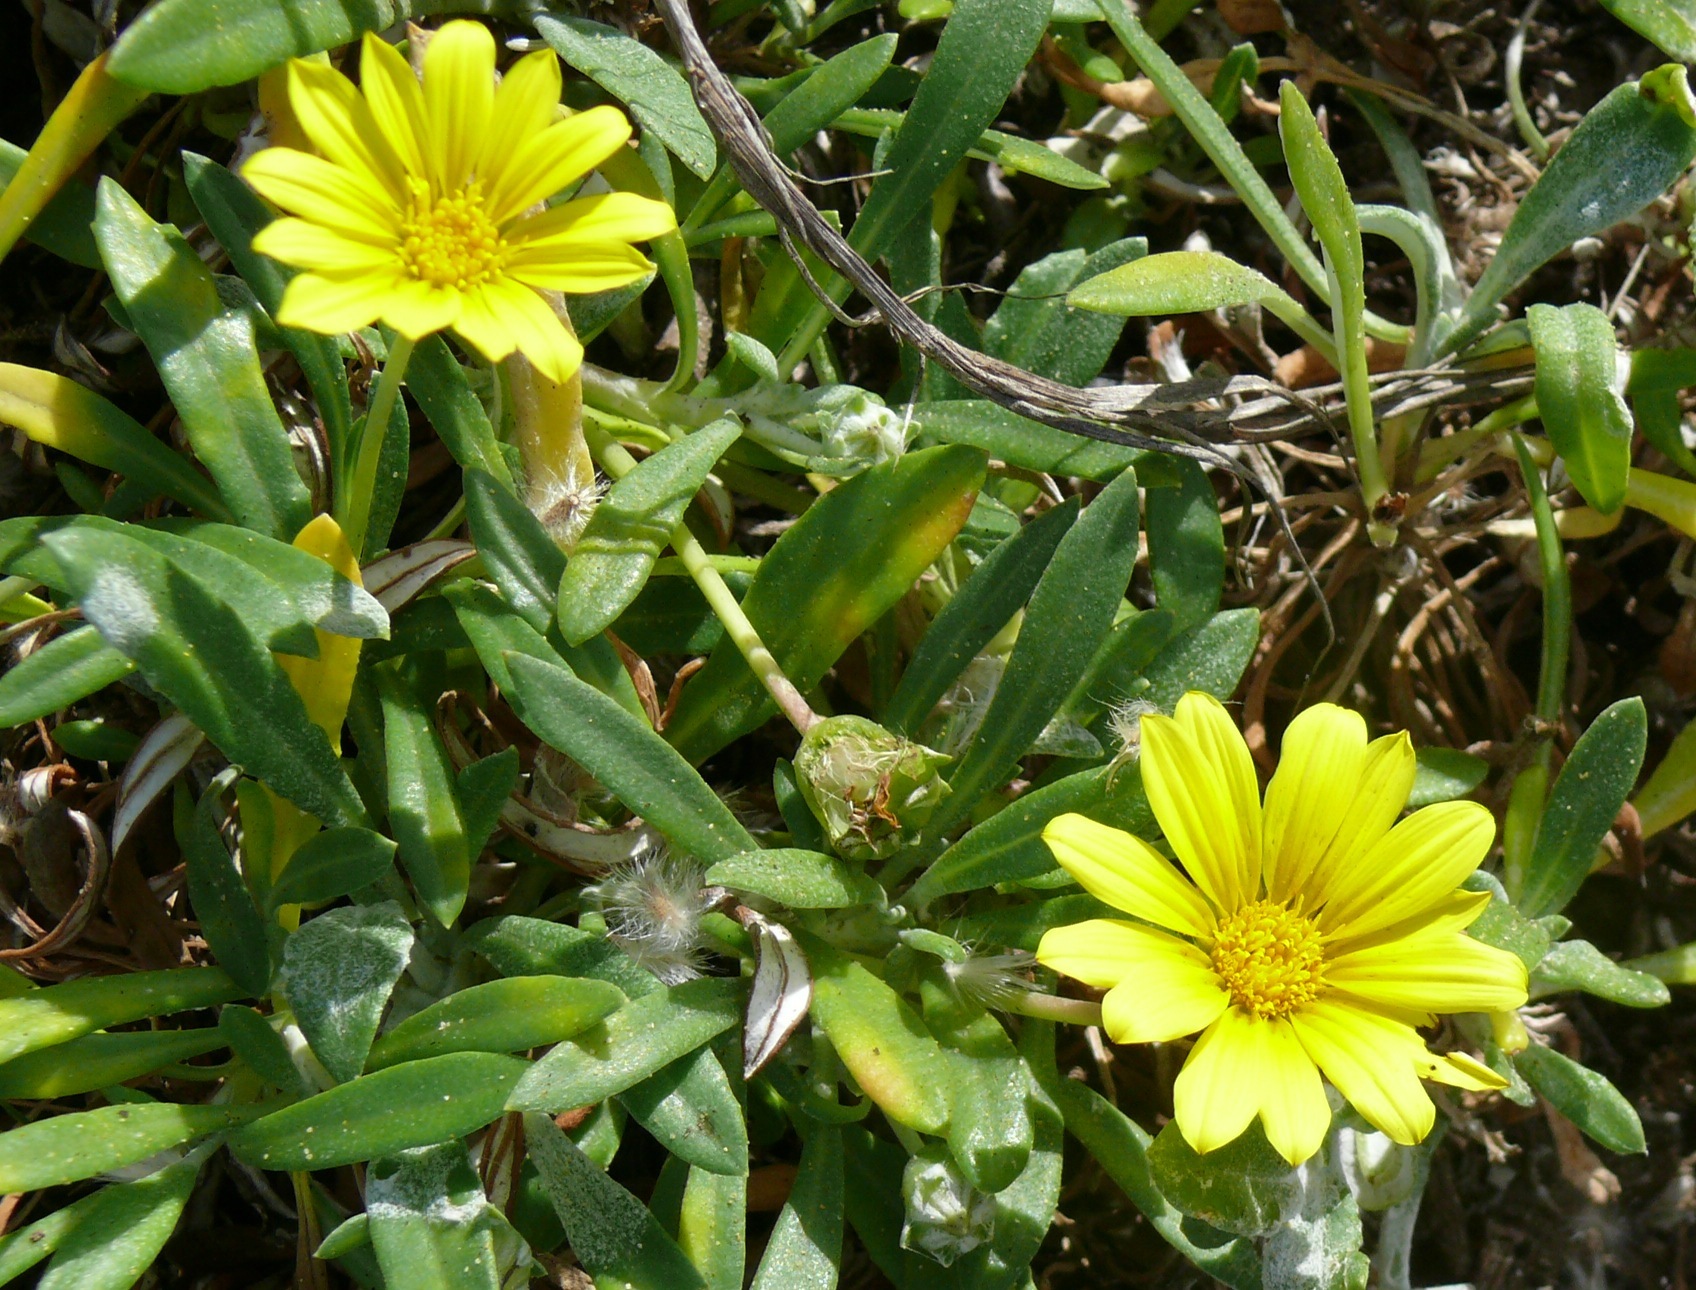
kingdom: Plantae
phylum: Tracheophyta
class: Magnoliopsida
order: Asterales
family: Asteraceae
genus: Gazania
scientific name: Gazania rigens
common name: Treasureflower
